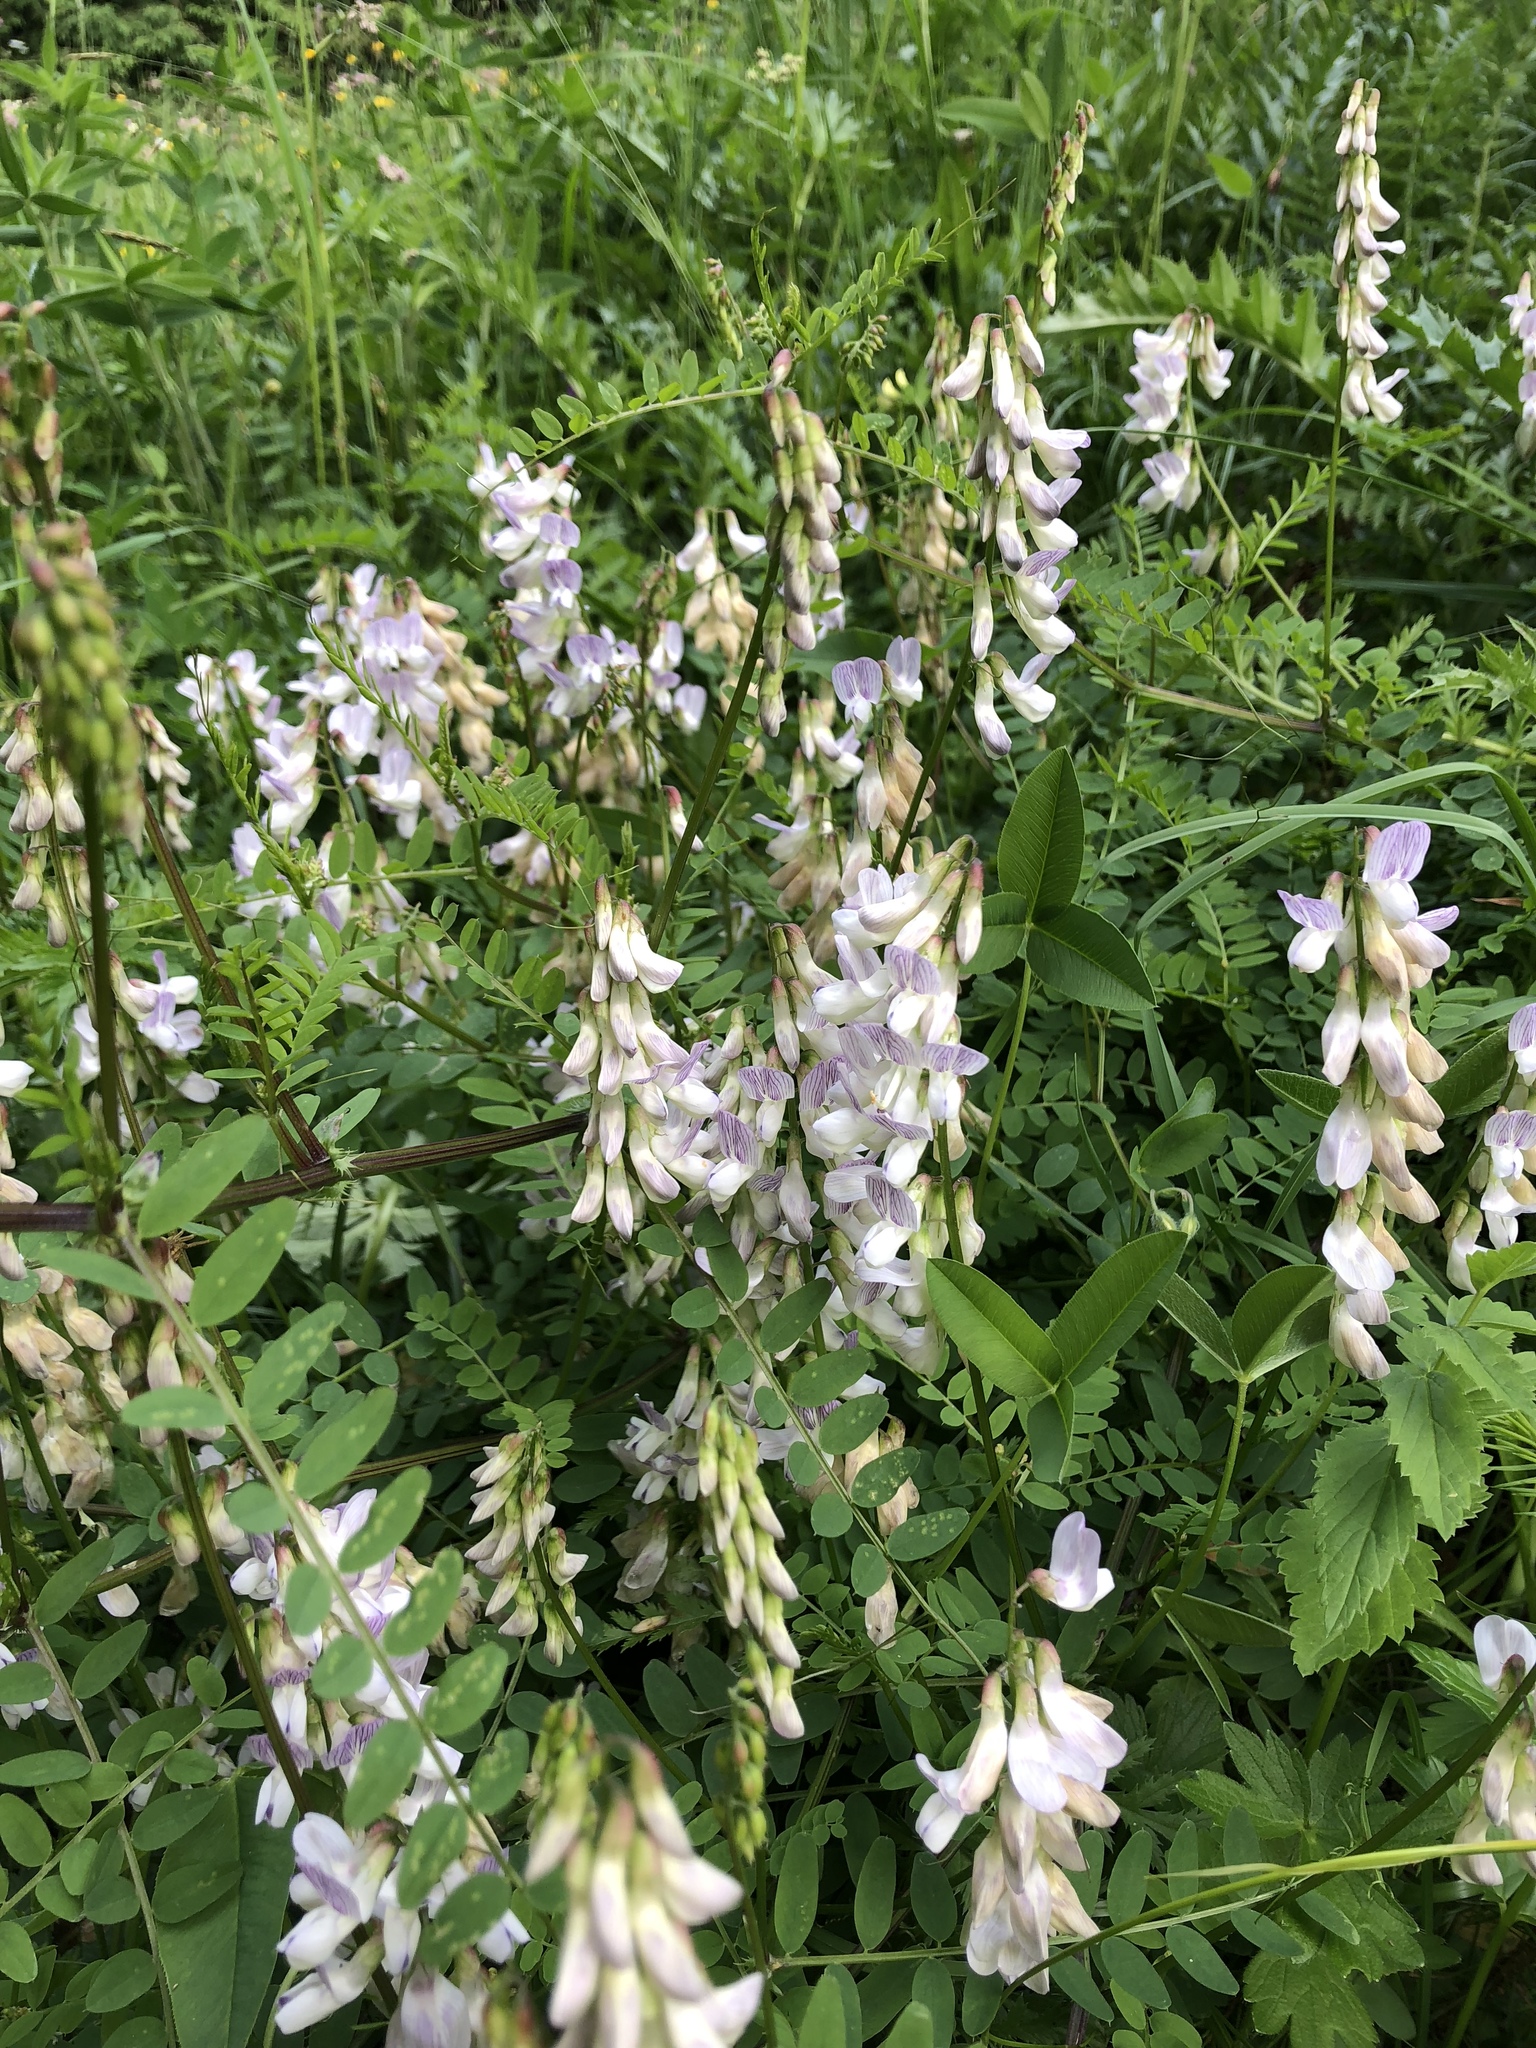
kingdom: Plantae
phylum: Tracheophyta
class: Magnoliopsida
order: Fabales
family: Fabaceae
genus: Vicia
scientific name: Vicia sylvatica
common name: Wood vetch
